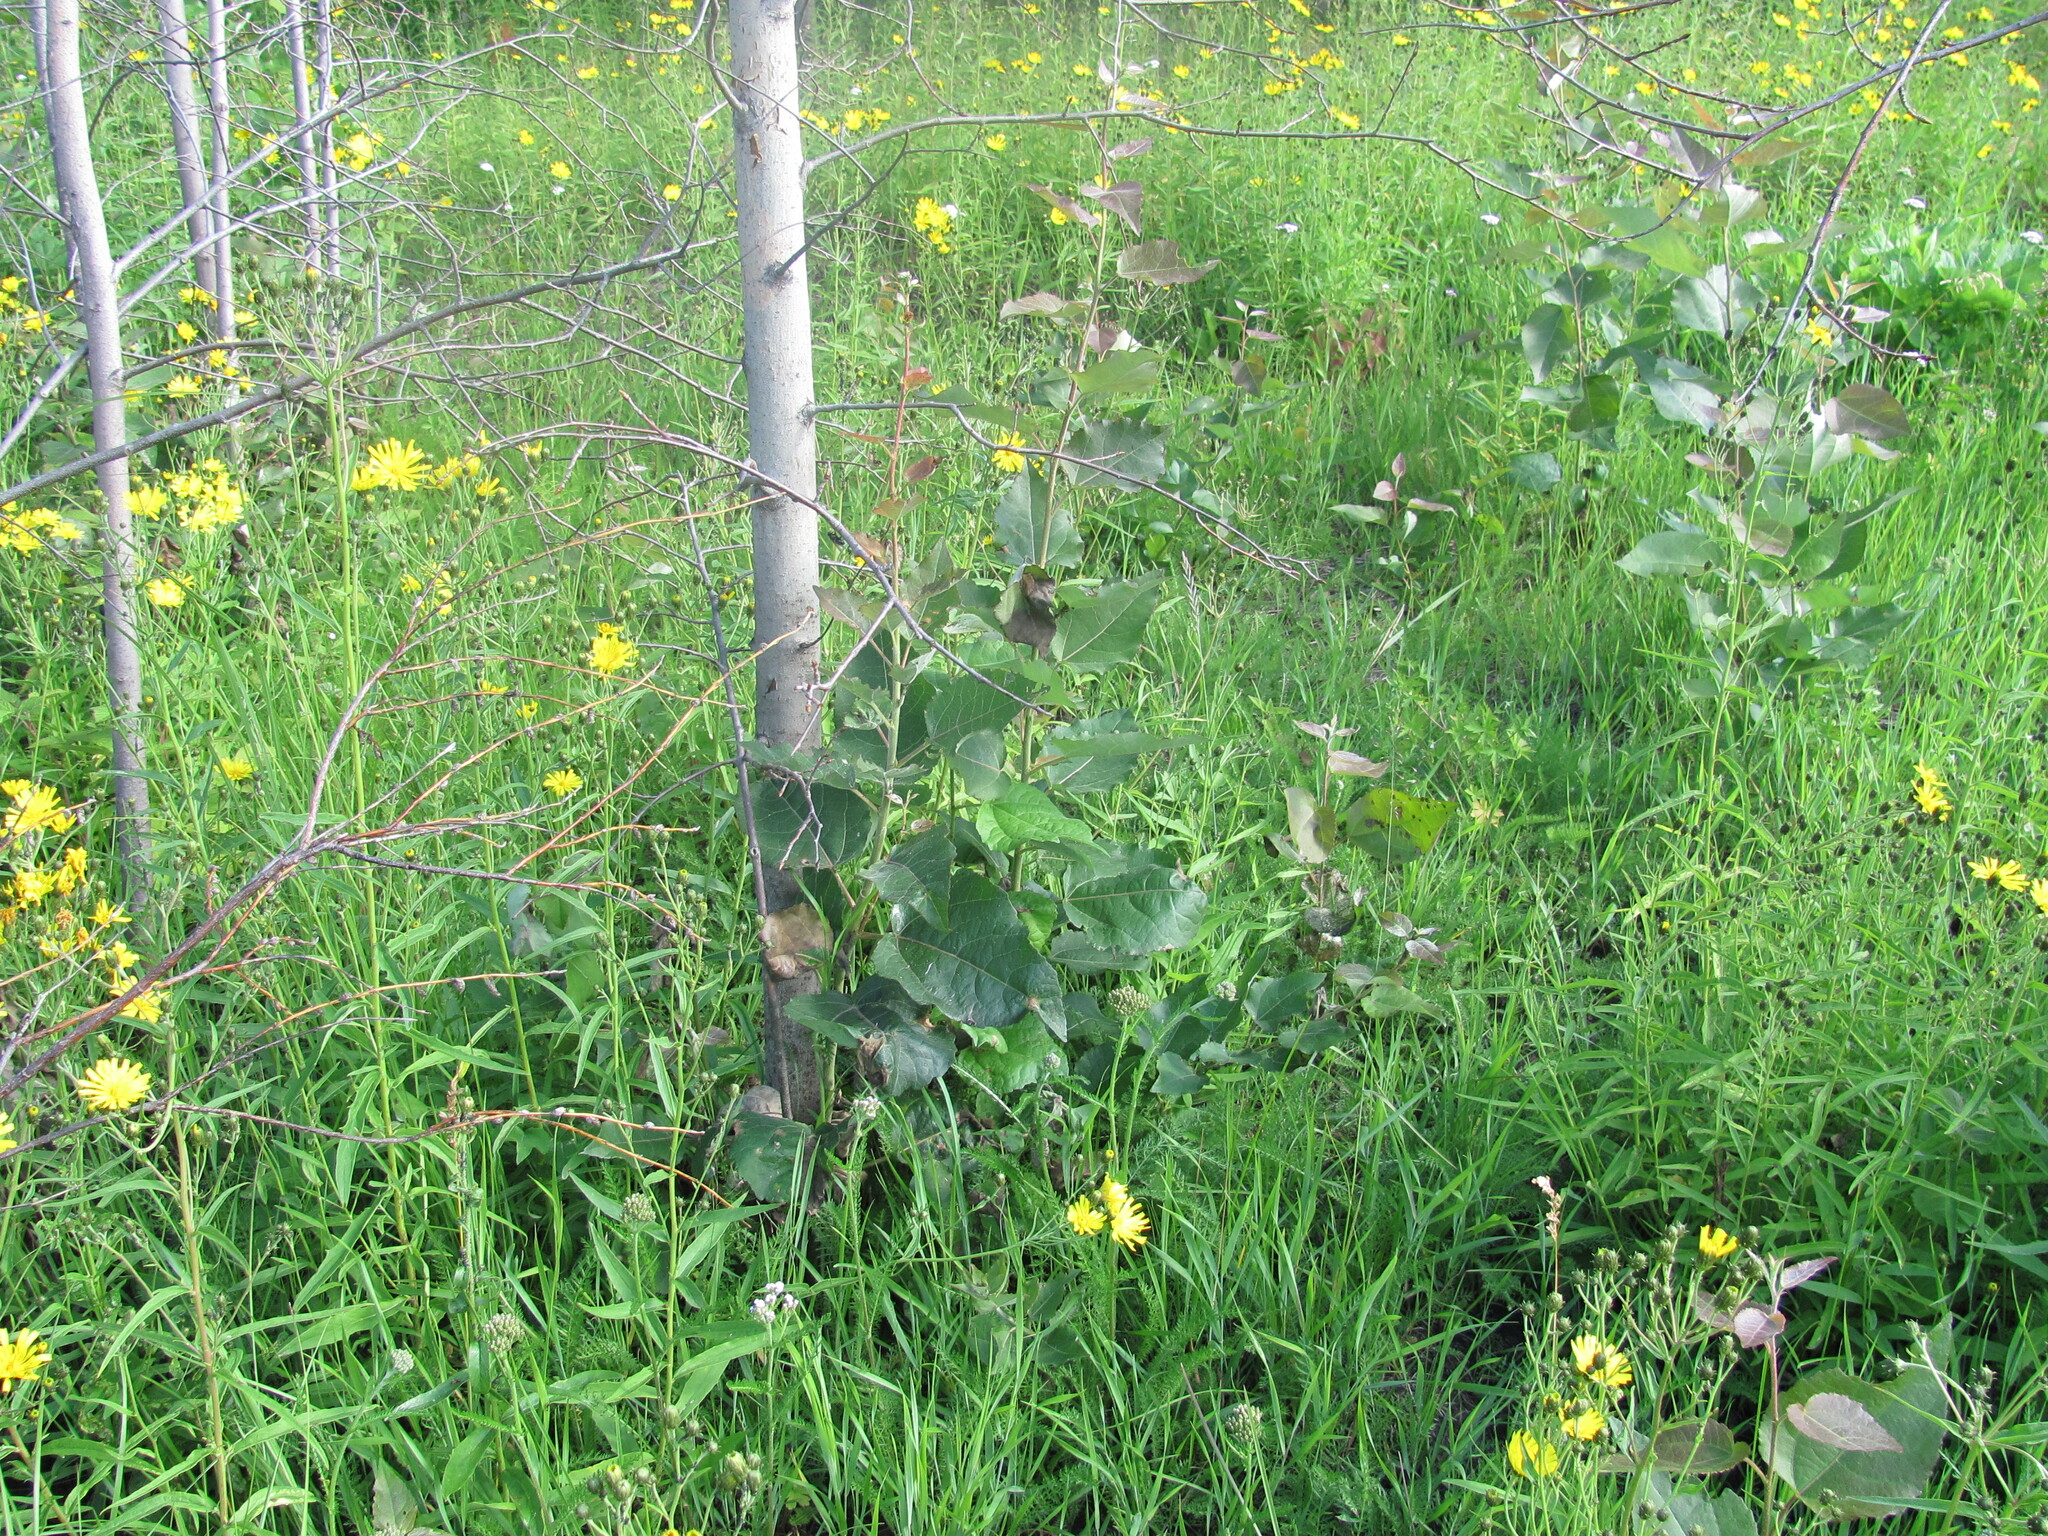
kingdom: Plantae
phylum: Tracheophyta
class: Magnoliopsida
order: Malpighiales
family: Salicaceae
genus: Populus
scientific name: Populus tremula
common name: European aspen
